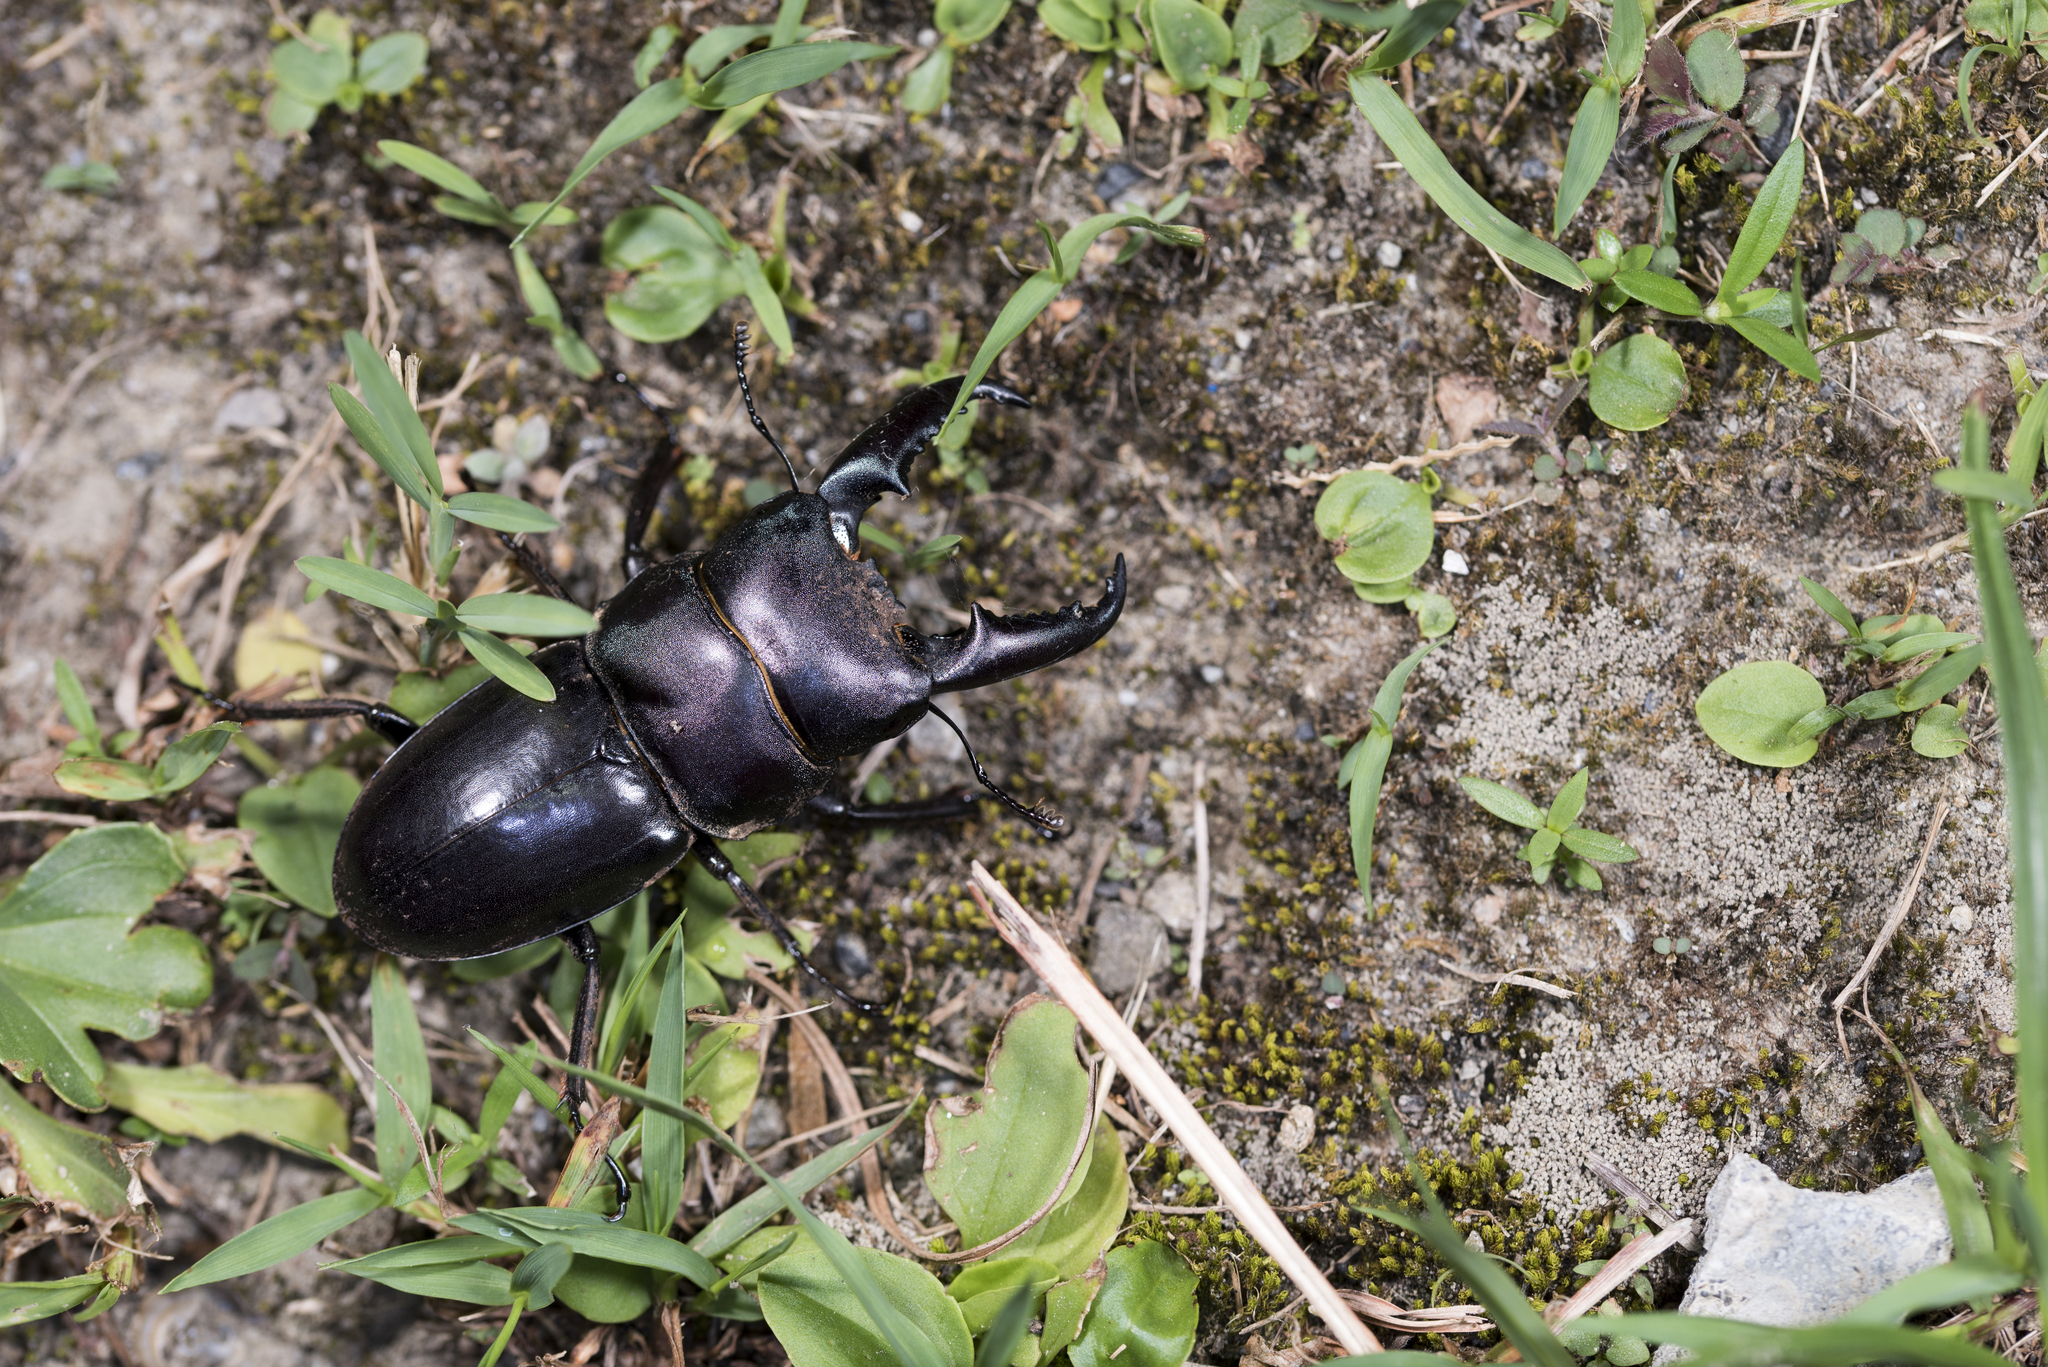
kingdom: Animalia
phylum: Arthropoda
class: Insecta
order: Coleoptera
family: Lucanidae
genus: Serrognathus
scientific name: Serrognathus titanus
